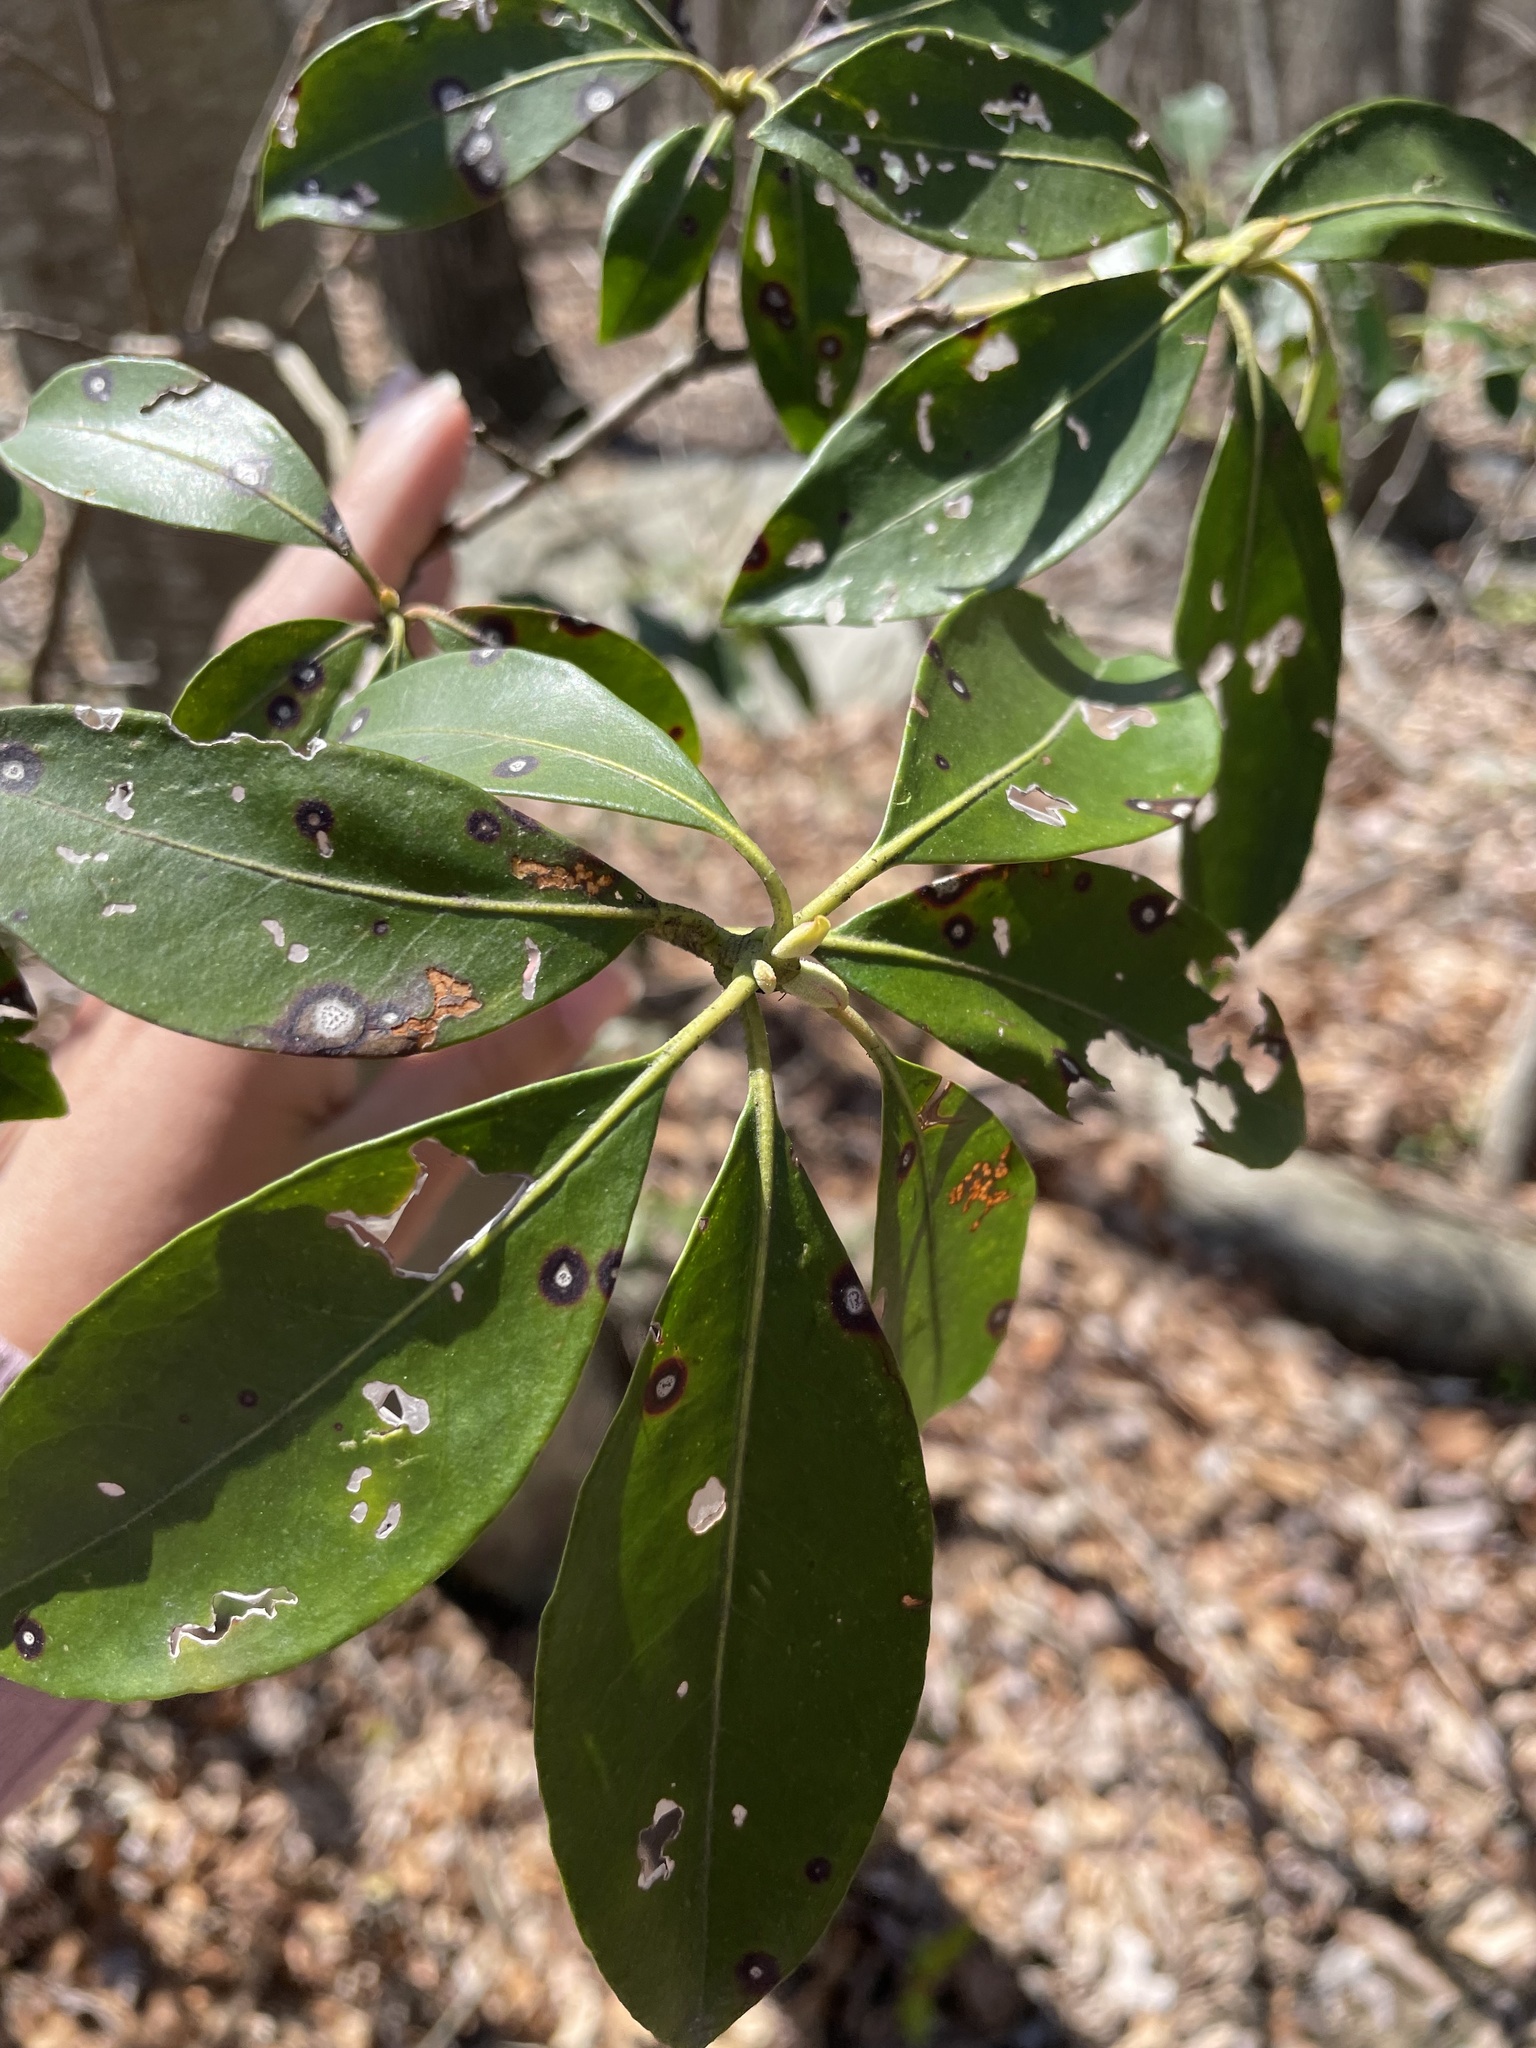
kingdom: Plantae
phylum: Tracheophyta
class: Magnoliopsida
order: Ericales
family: Ericaceae
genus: Kalmia
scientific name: Kalmia latifolia
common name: Mountain-laurel
